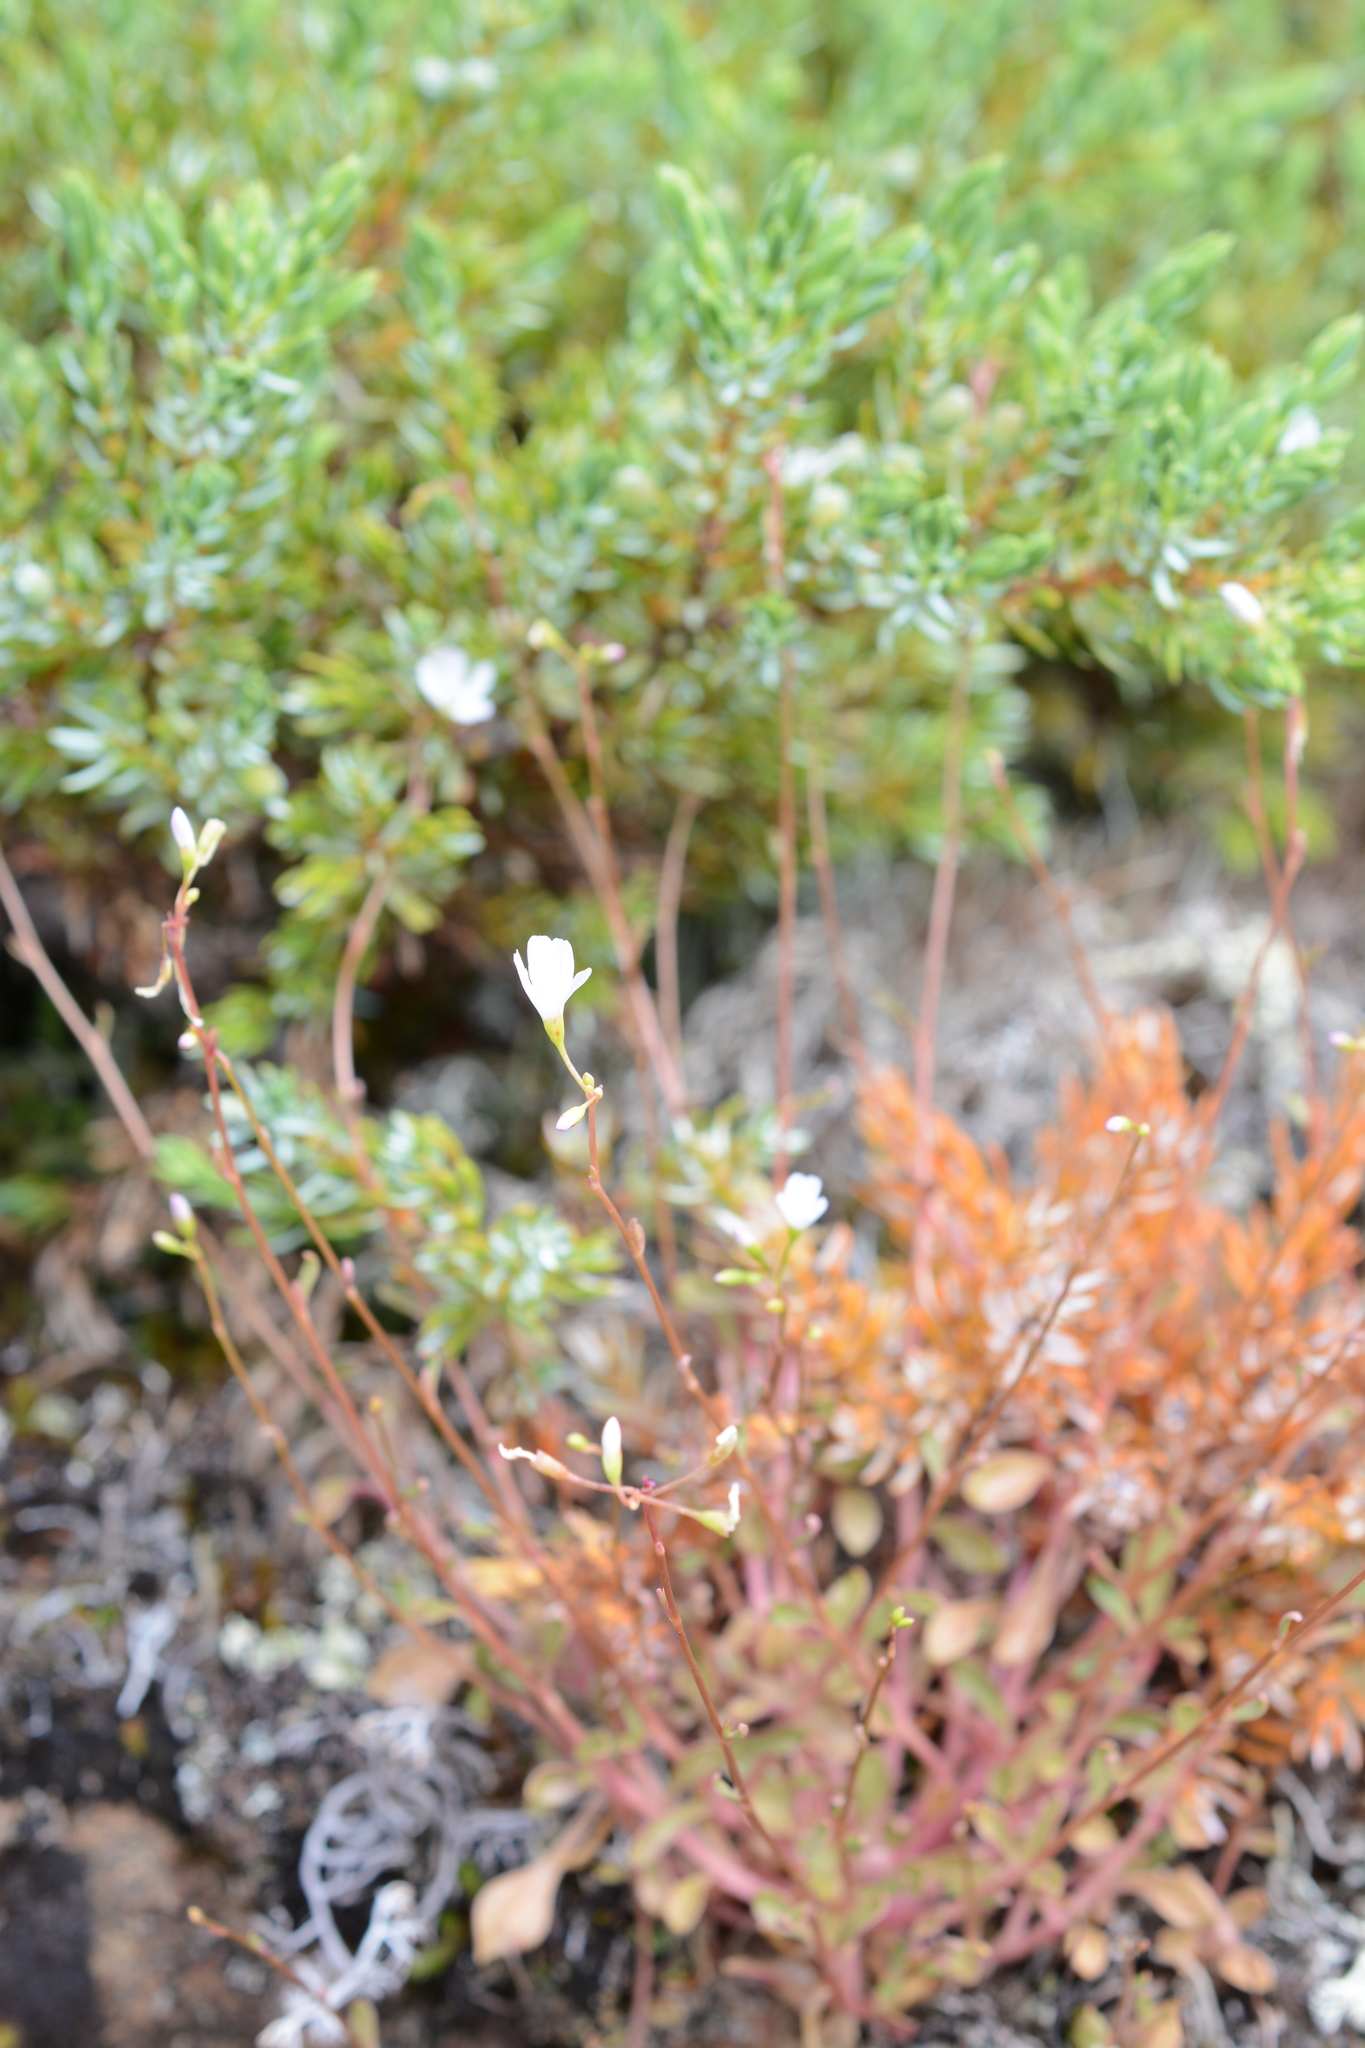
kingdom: Plantae
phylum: Tracheophyta
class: Magnoliopsida
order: Caryophyllales
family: Montiaceae
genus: Montia
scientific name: Montia parvifolia
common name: Small-leaved blinks
